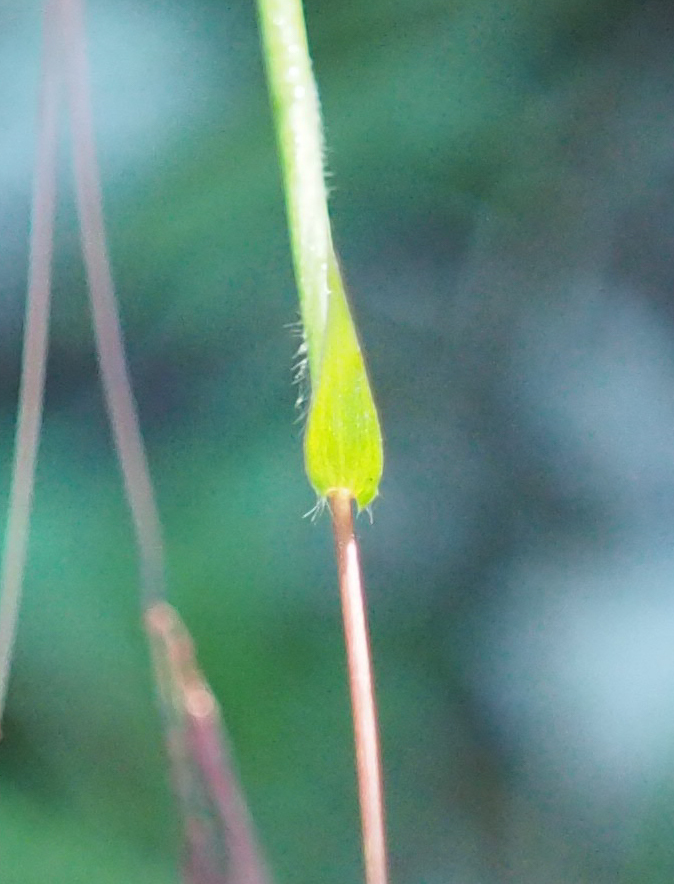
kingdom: Plantae
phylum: Tracheophyta
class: Liliopsida
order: Poales
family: Poaceae
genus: Arthraxon
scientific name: Arthraxon hispidus
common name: Small carpgrass
